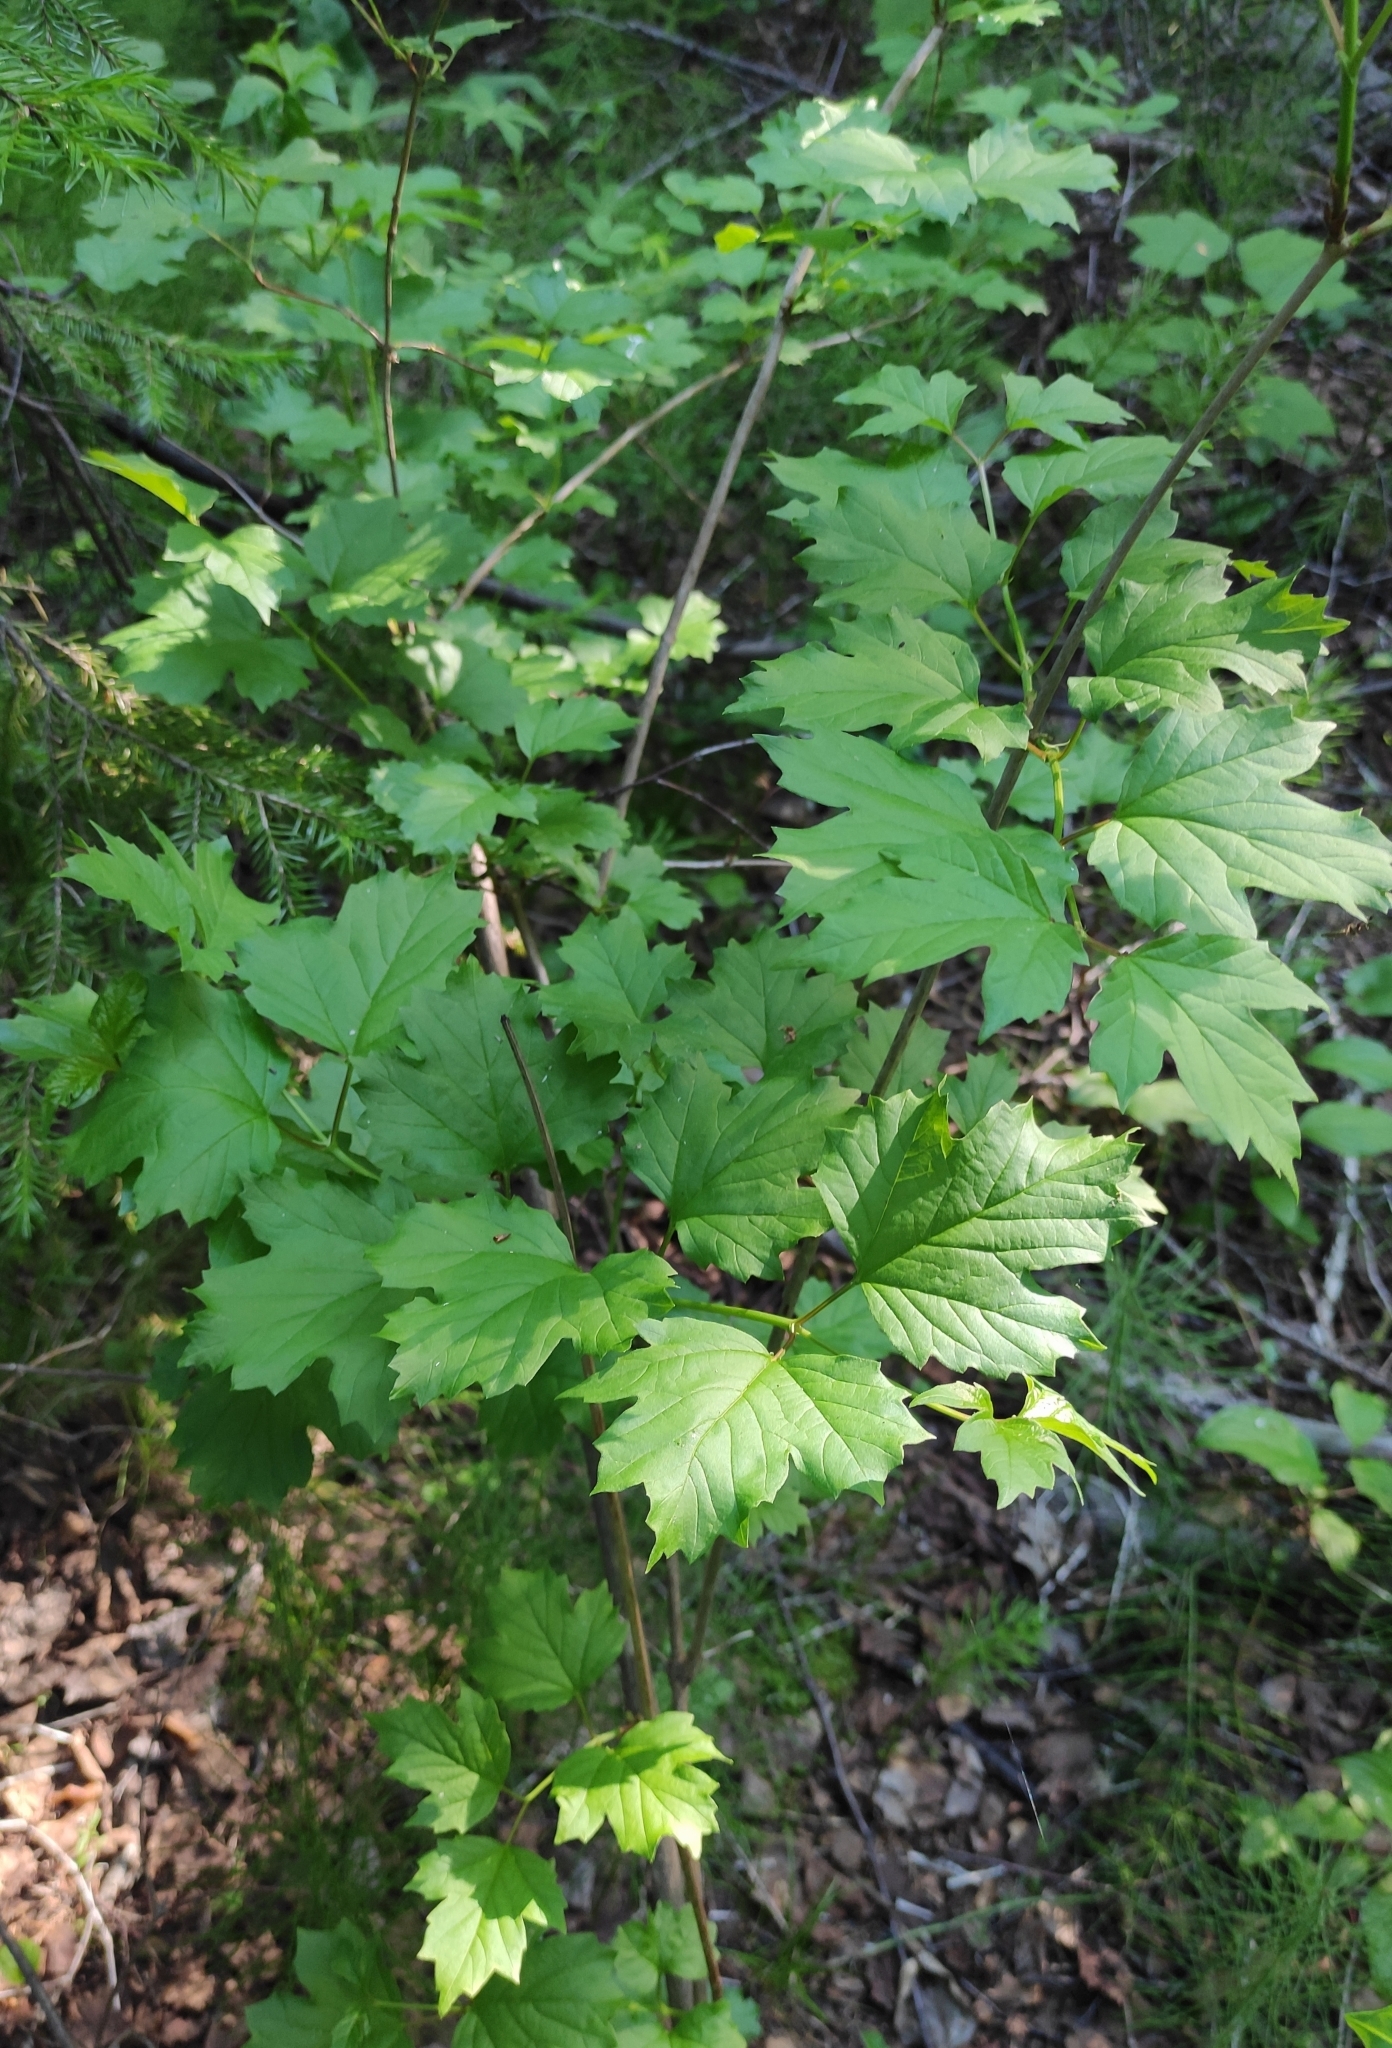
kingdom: Plantae
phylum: Tracheophyta
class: Magnoliopsida
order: Dipsacales
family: Viburnaceae
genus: Viburnum
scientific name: Viburnum opulus
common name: Guelder-rose
